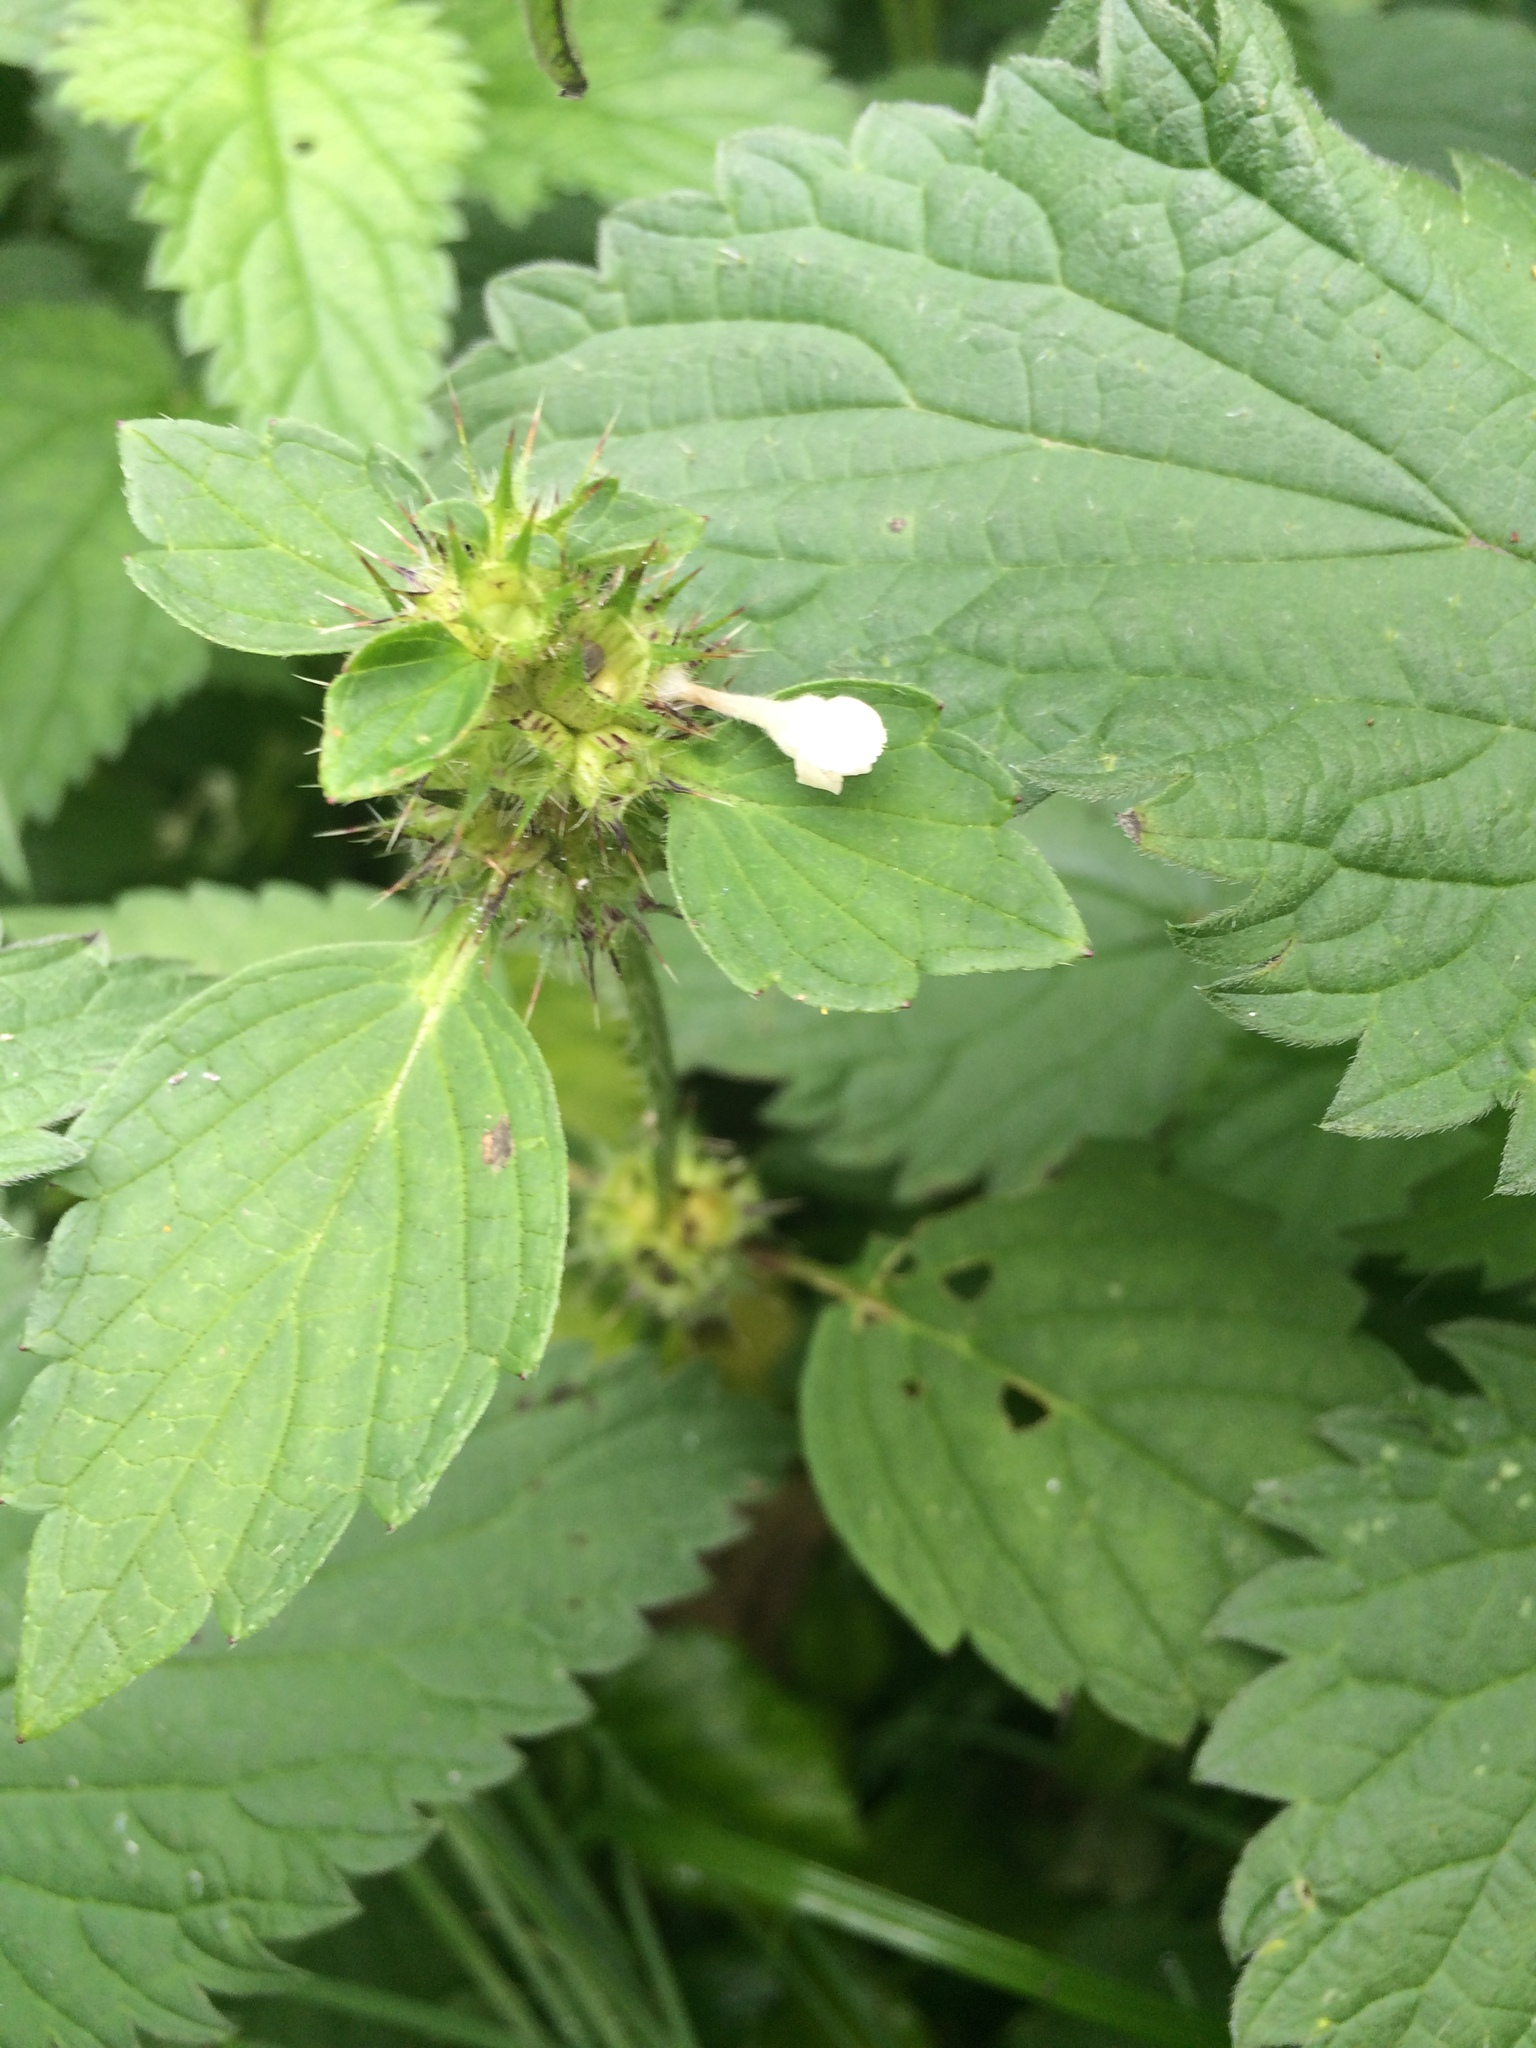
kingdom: Plantae
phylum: Tracheophyta
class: Magnoliopsida
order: Lamiales
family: Lamiaceae
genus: Galeopsis
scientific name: Galeopsis tetrahit
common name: Common hemp-nettle
